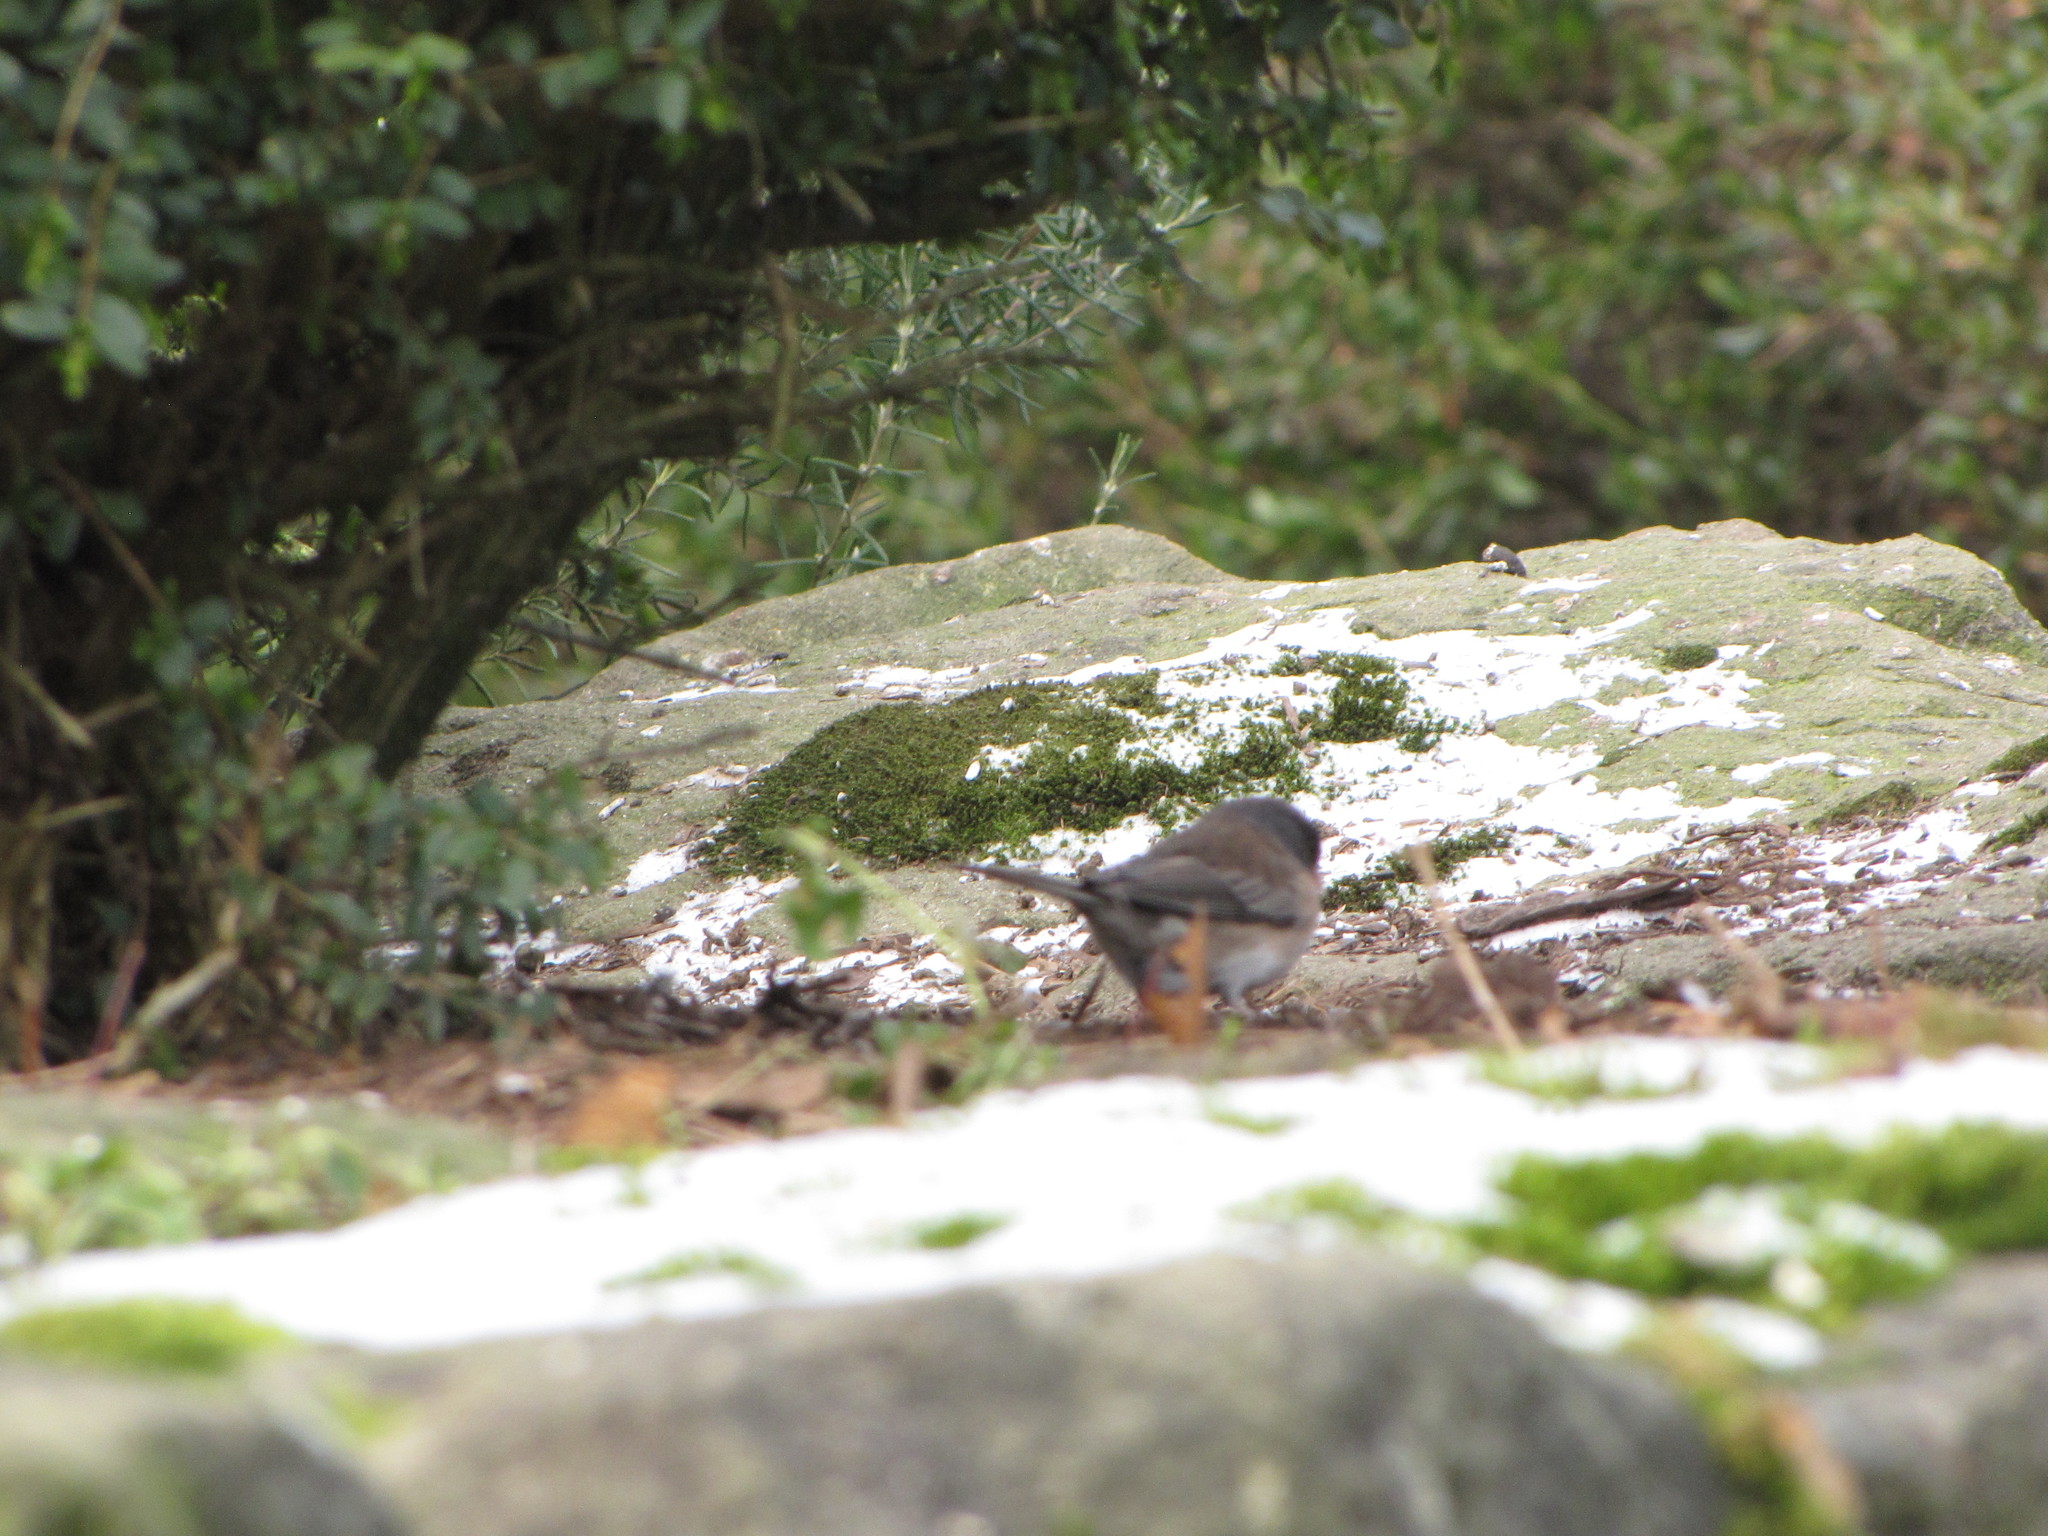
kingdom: Animalia
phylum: Chordata
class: Aves
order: Passeriformes
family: Passerellidae
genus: Junco
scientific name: Junco hyemalis
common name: Dark-eyed junco
